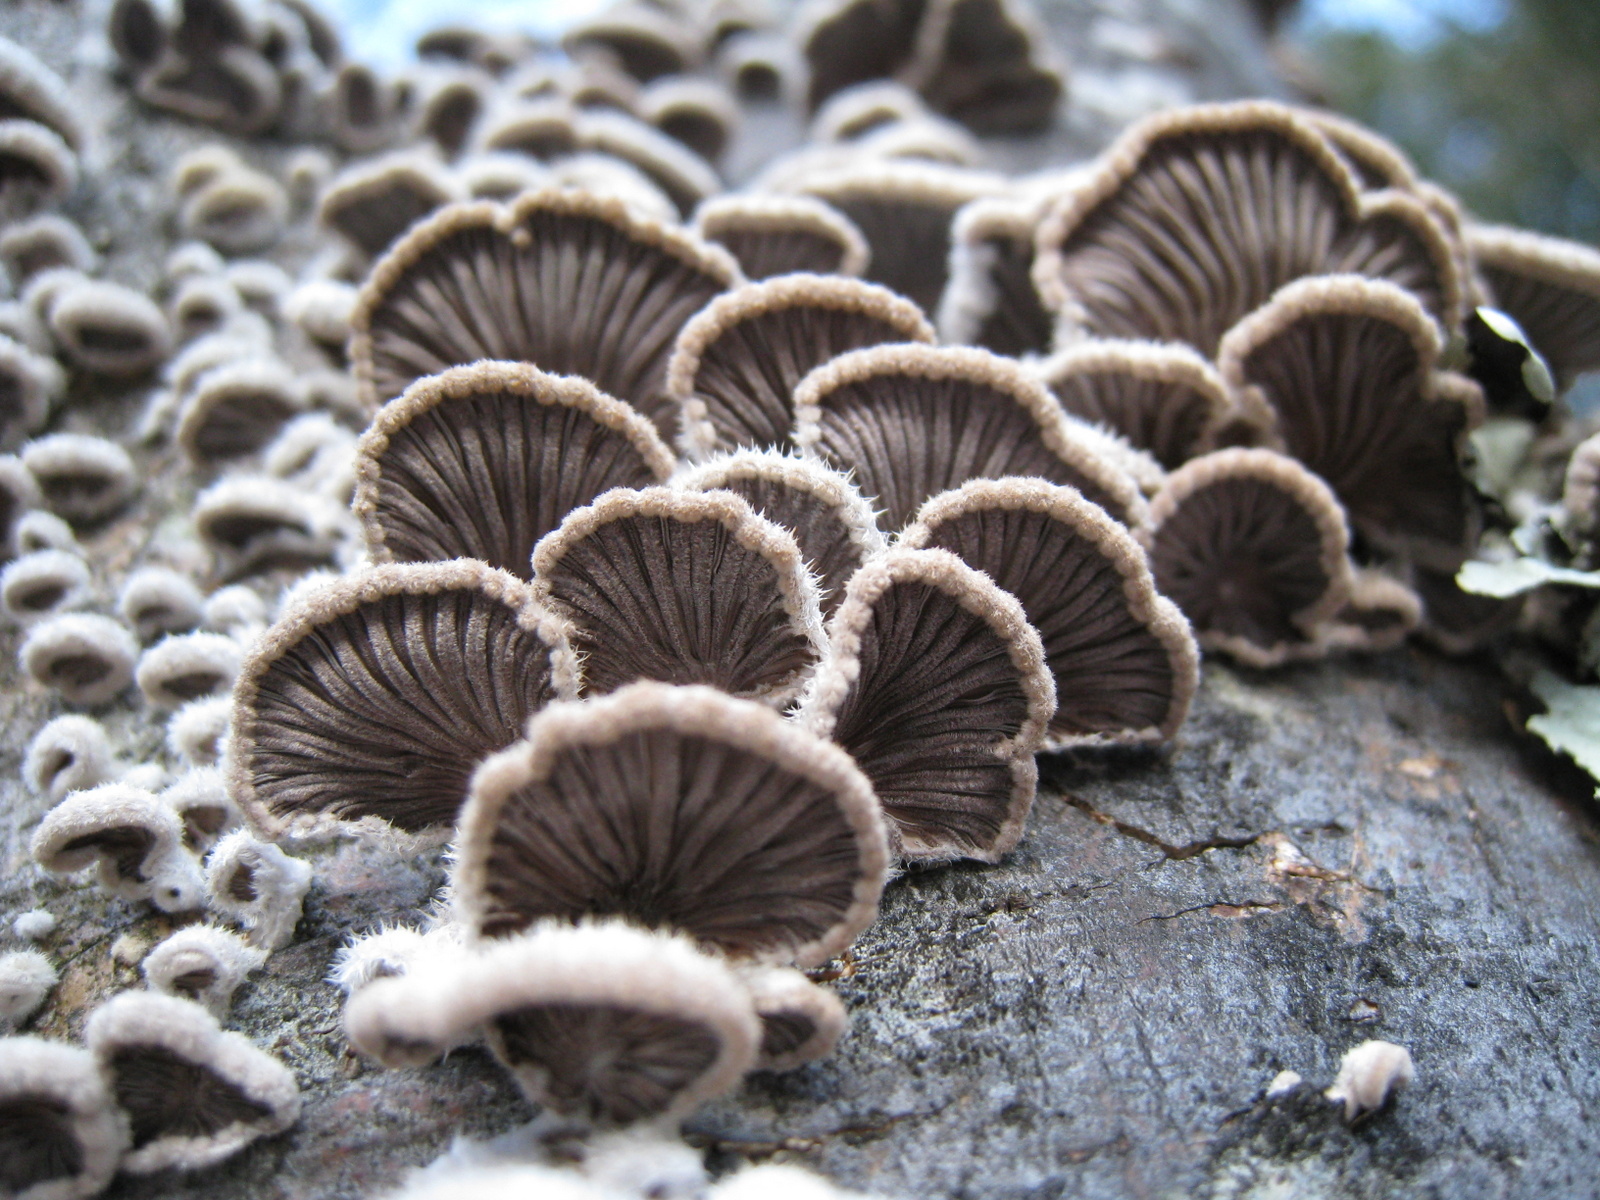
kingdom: Fungi
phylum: Basidiomycota
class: Agaricomycetes
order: Agaricales
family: Schizophyllaceae
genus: Schizophyllum
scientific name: Schizophyllum commune
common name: Common porecrust
